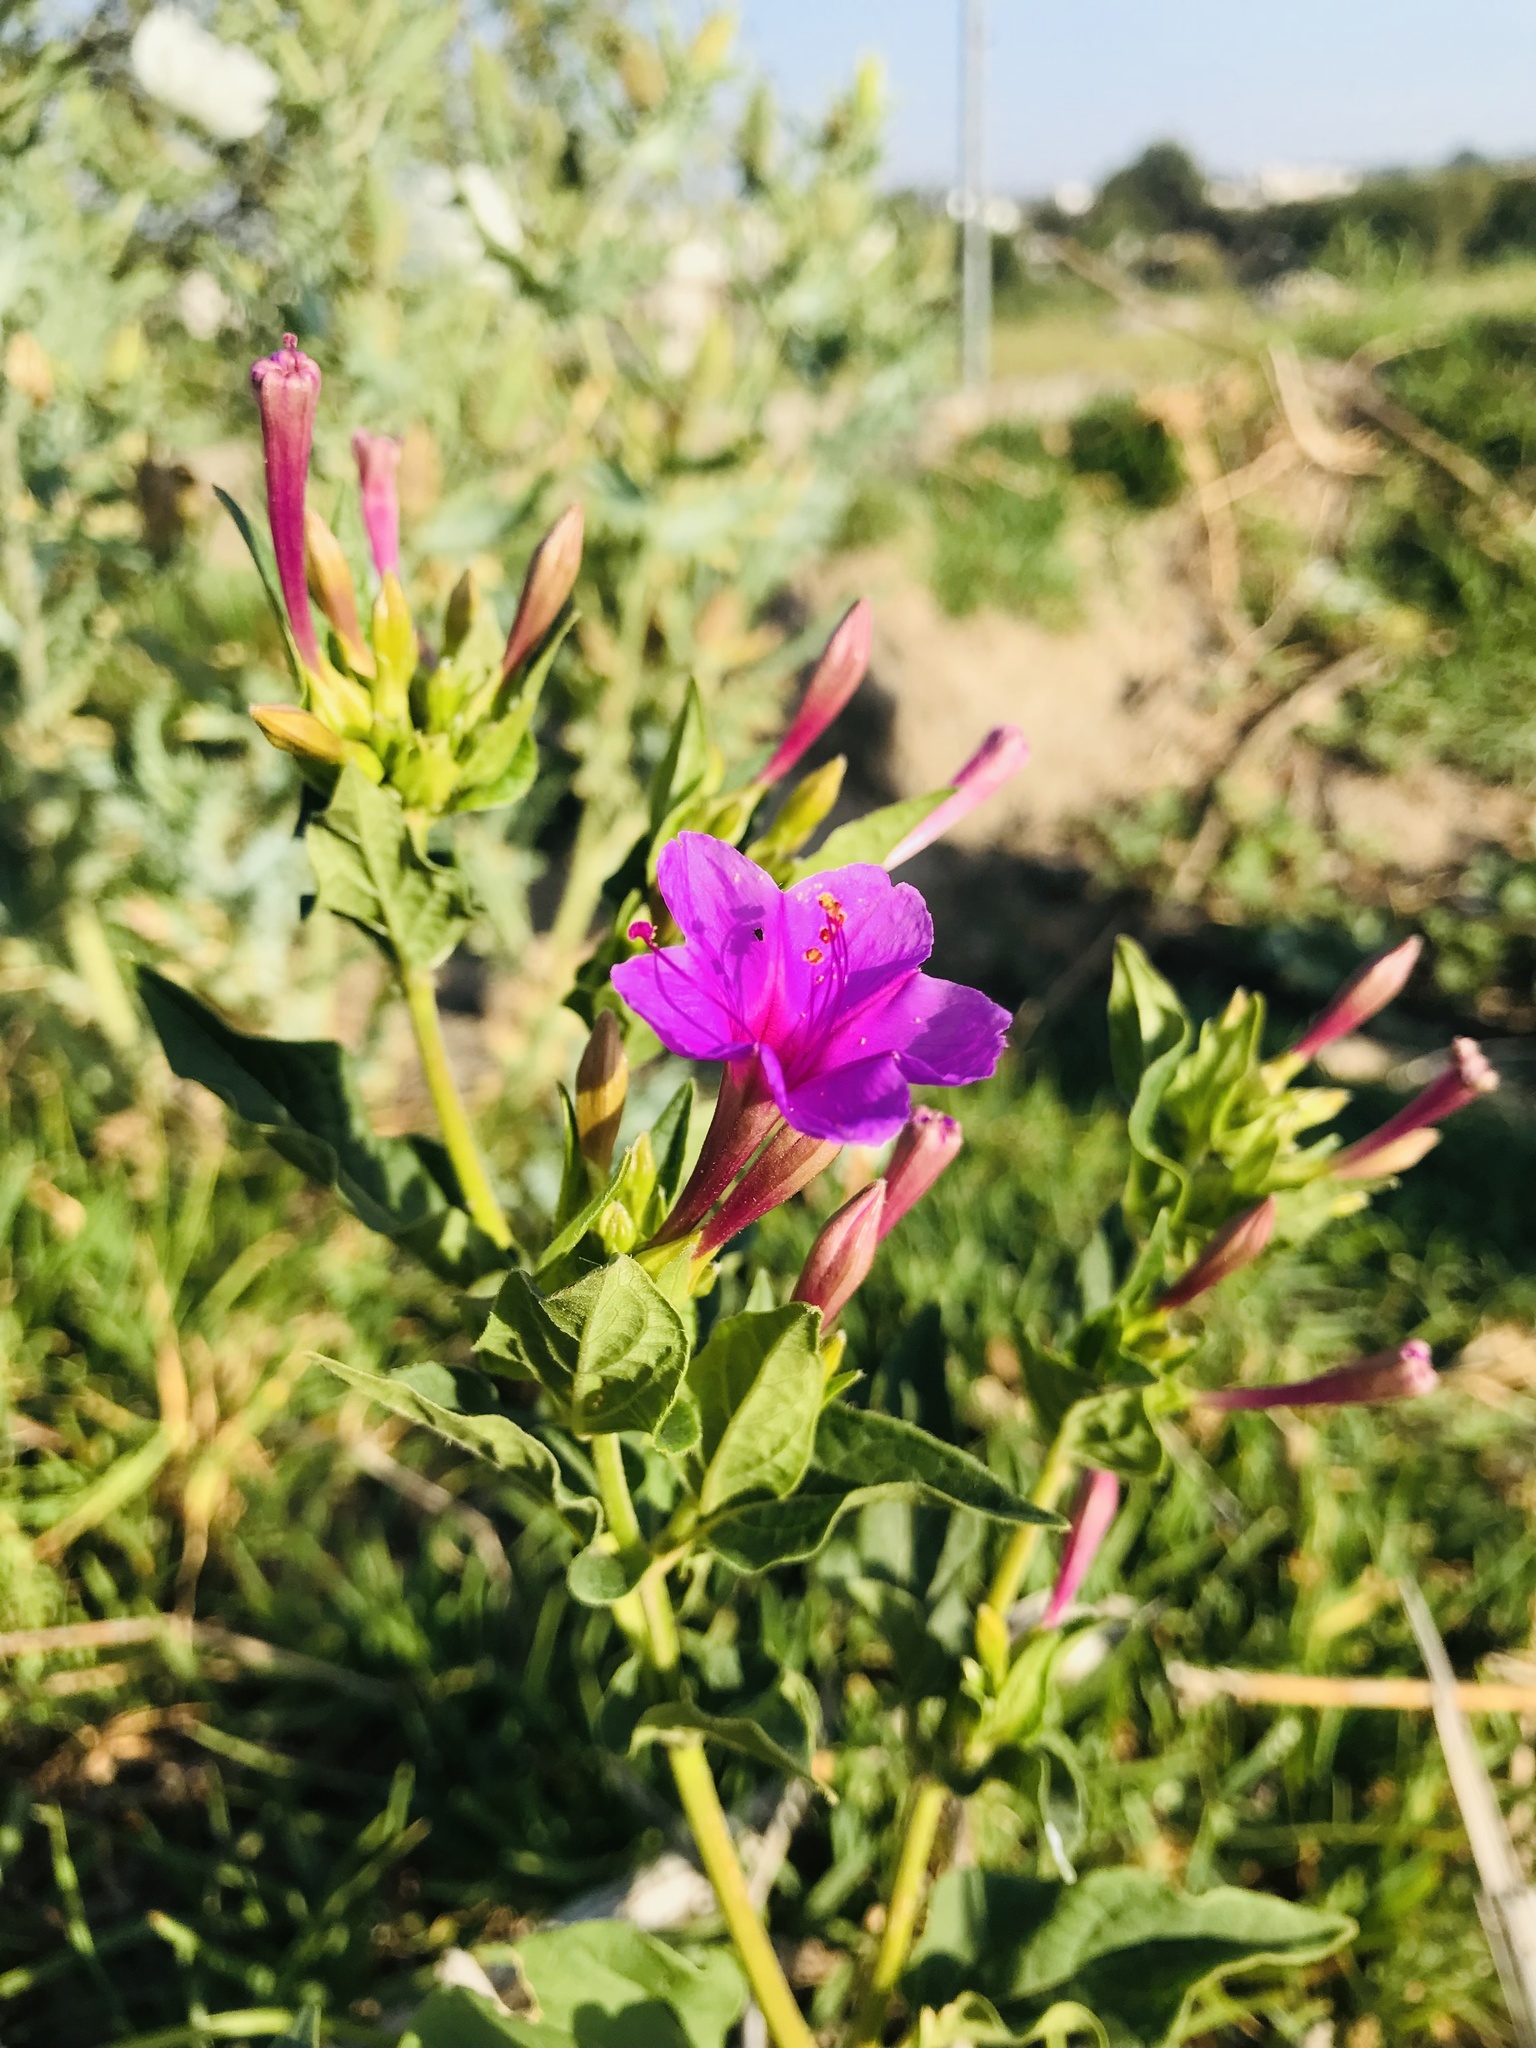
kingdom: Plantae
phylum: Tracheophyta
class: Magnoliopsida
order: Caryophyllales
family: Nyctaginaceae
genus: Mirabilis
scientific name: Mirabilis jalapa
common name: Marvel-of-peru
